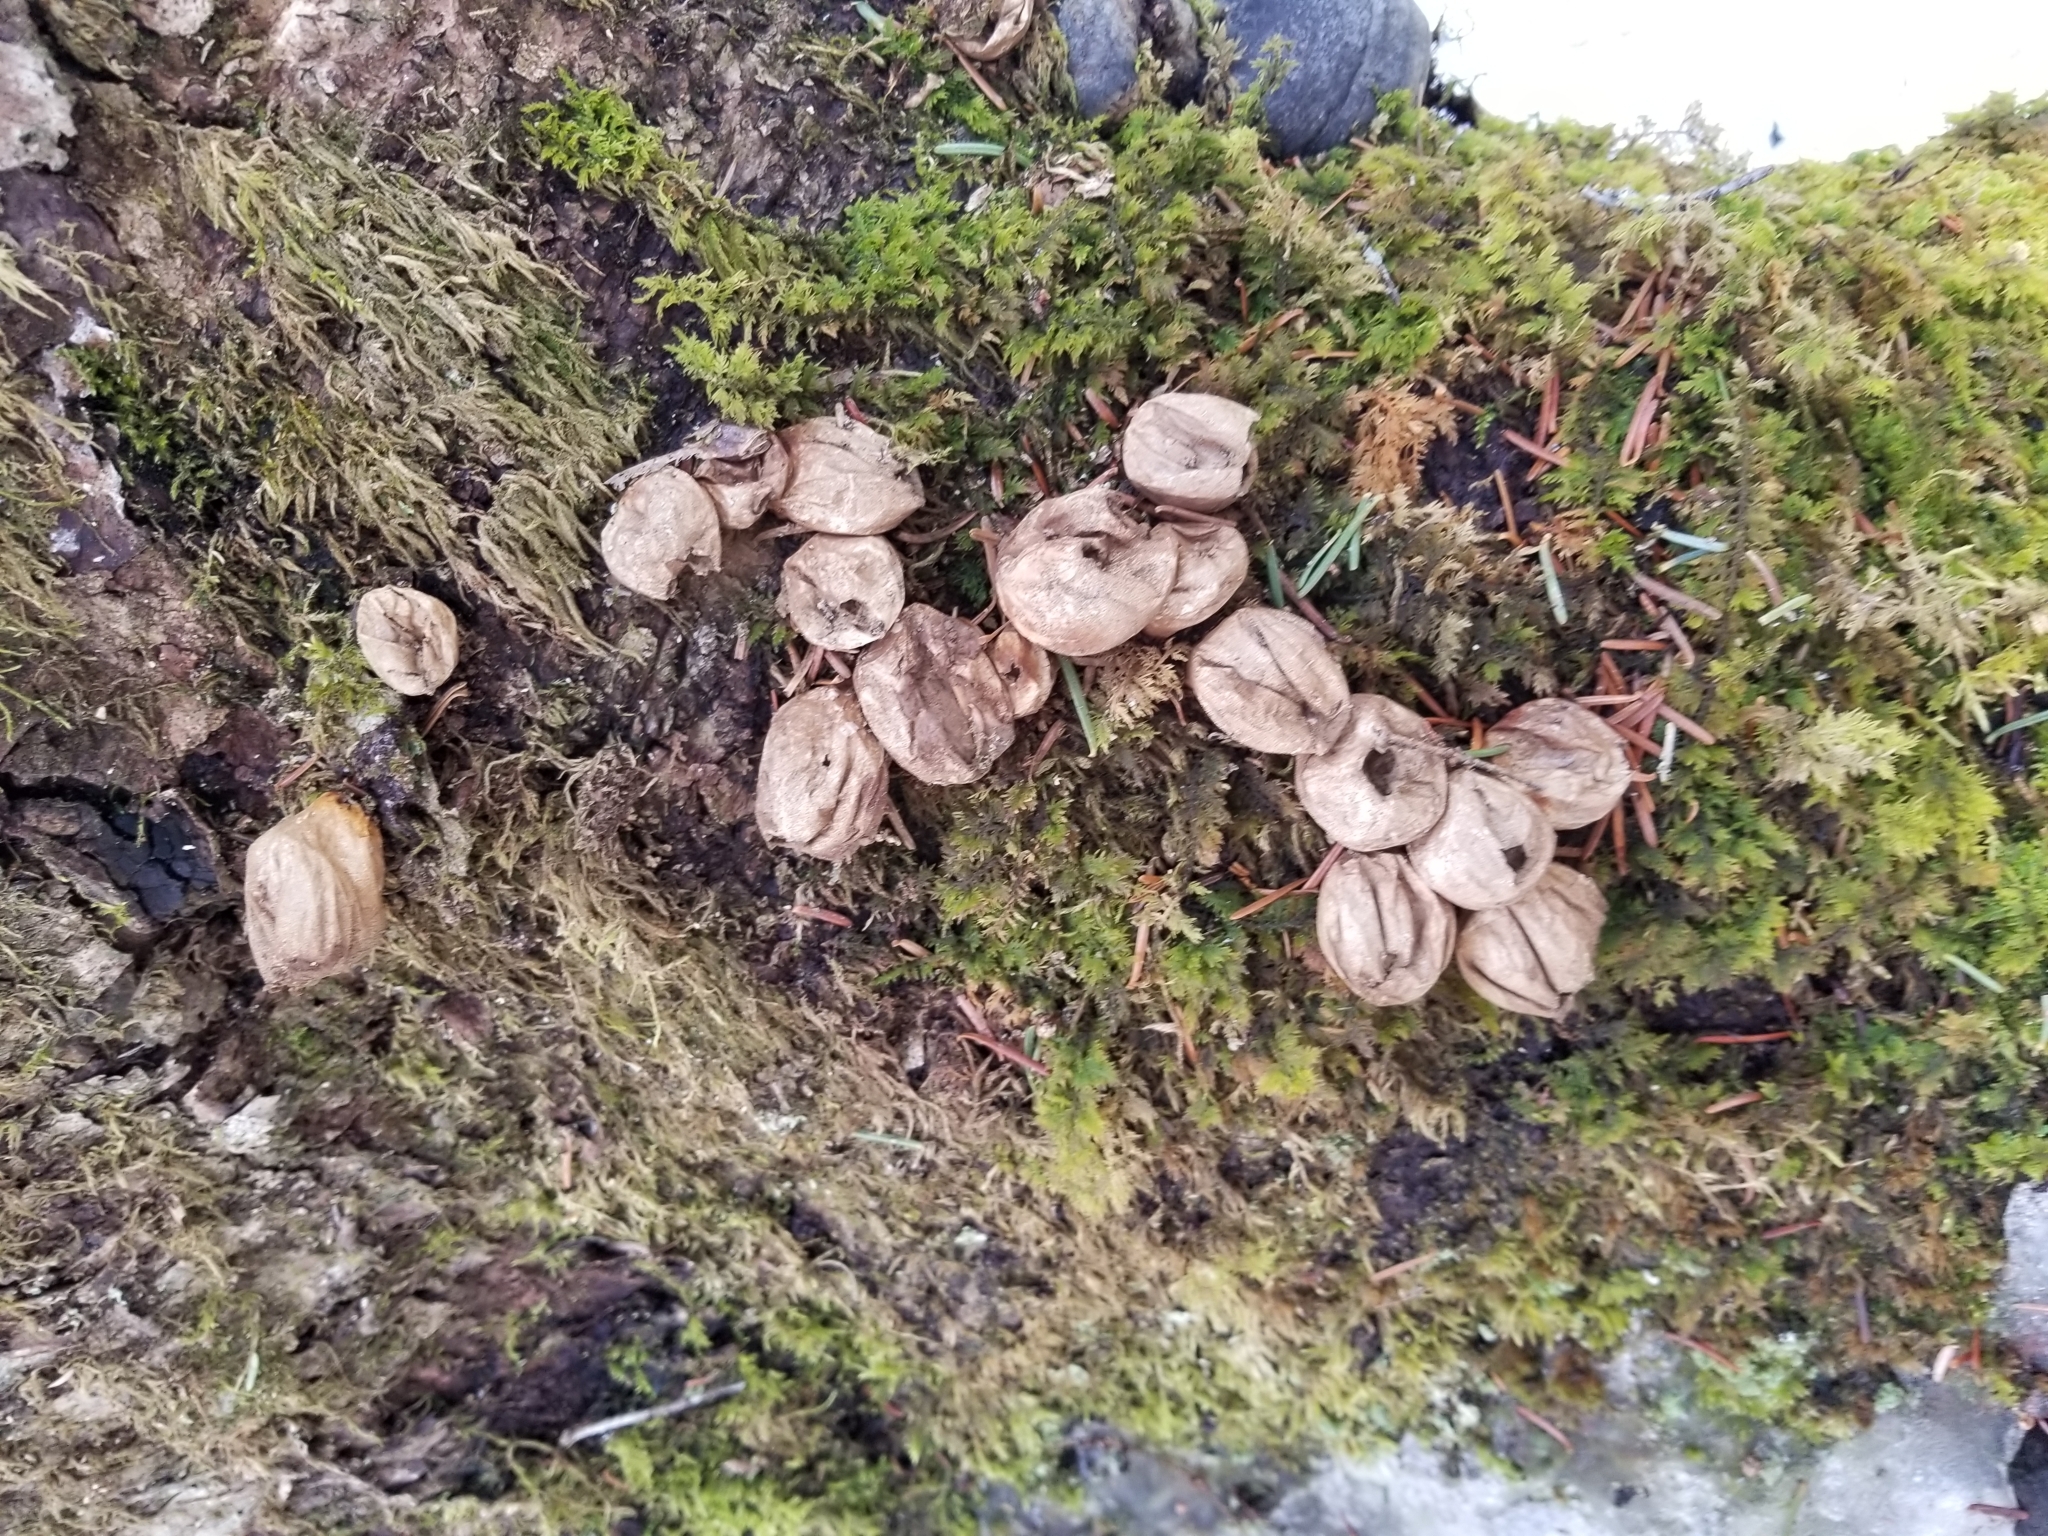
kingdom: Fungi
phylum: Basidiomycota
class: Agaricomycetes
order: Agaricales
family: Lycoperdaceae
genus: Apioperdon
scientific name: Apioperdon pyriforme
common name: Pear-shaped puffball
